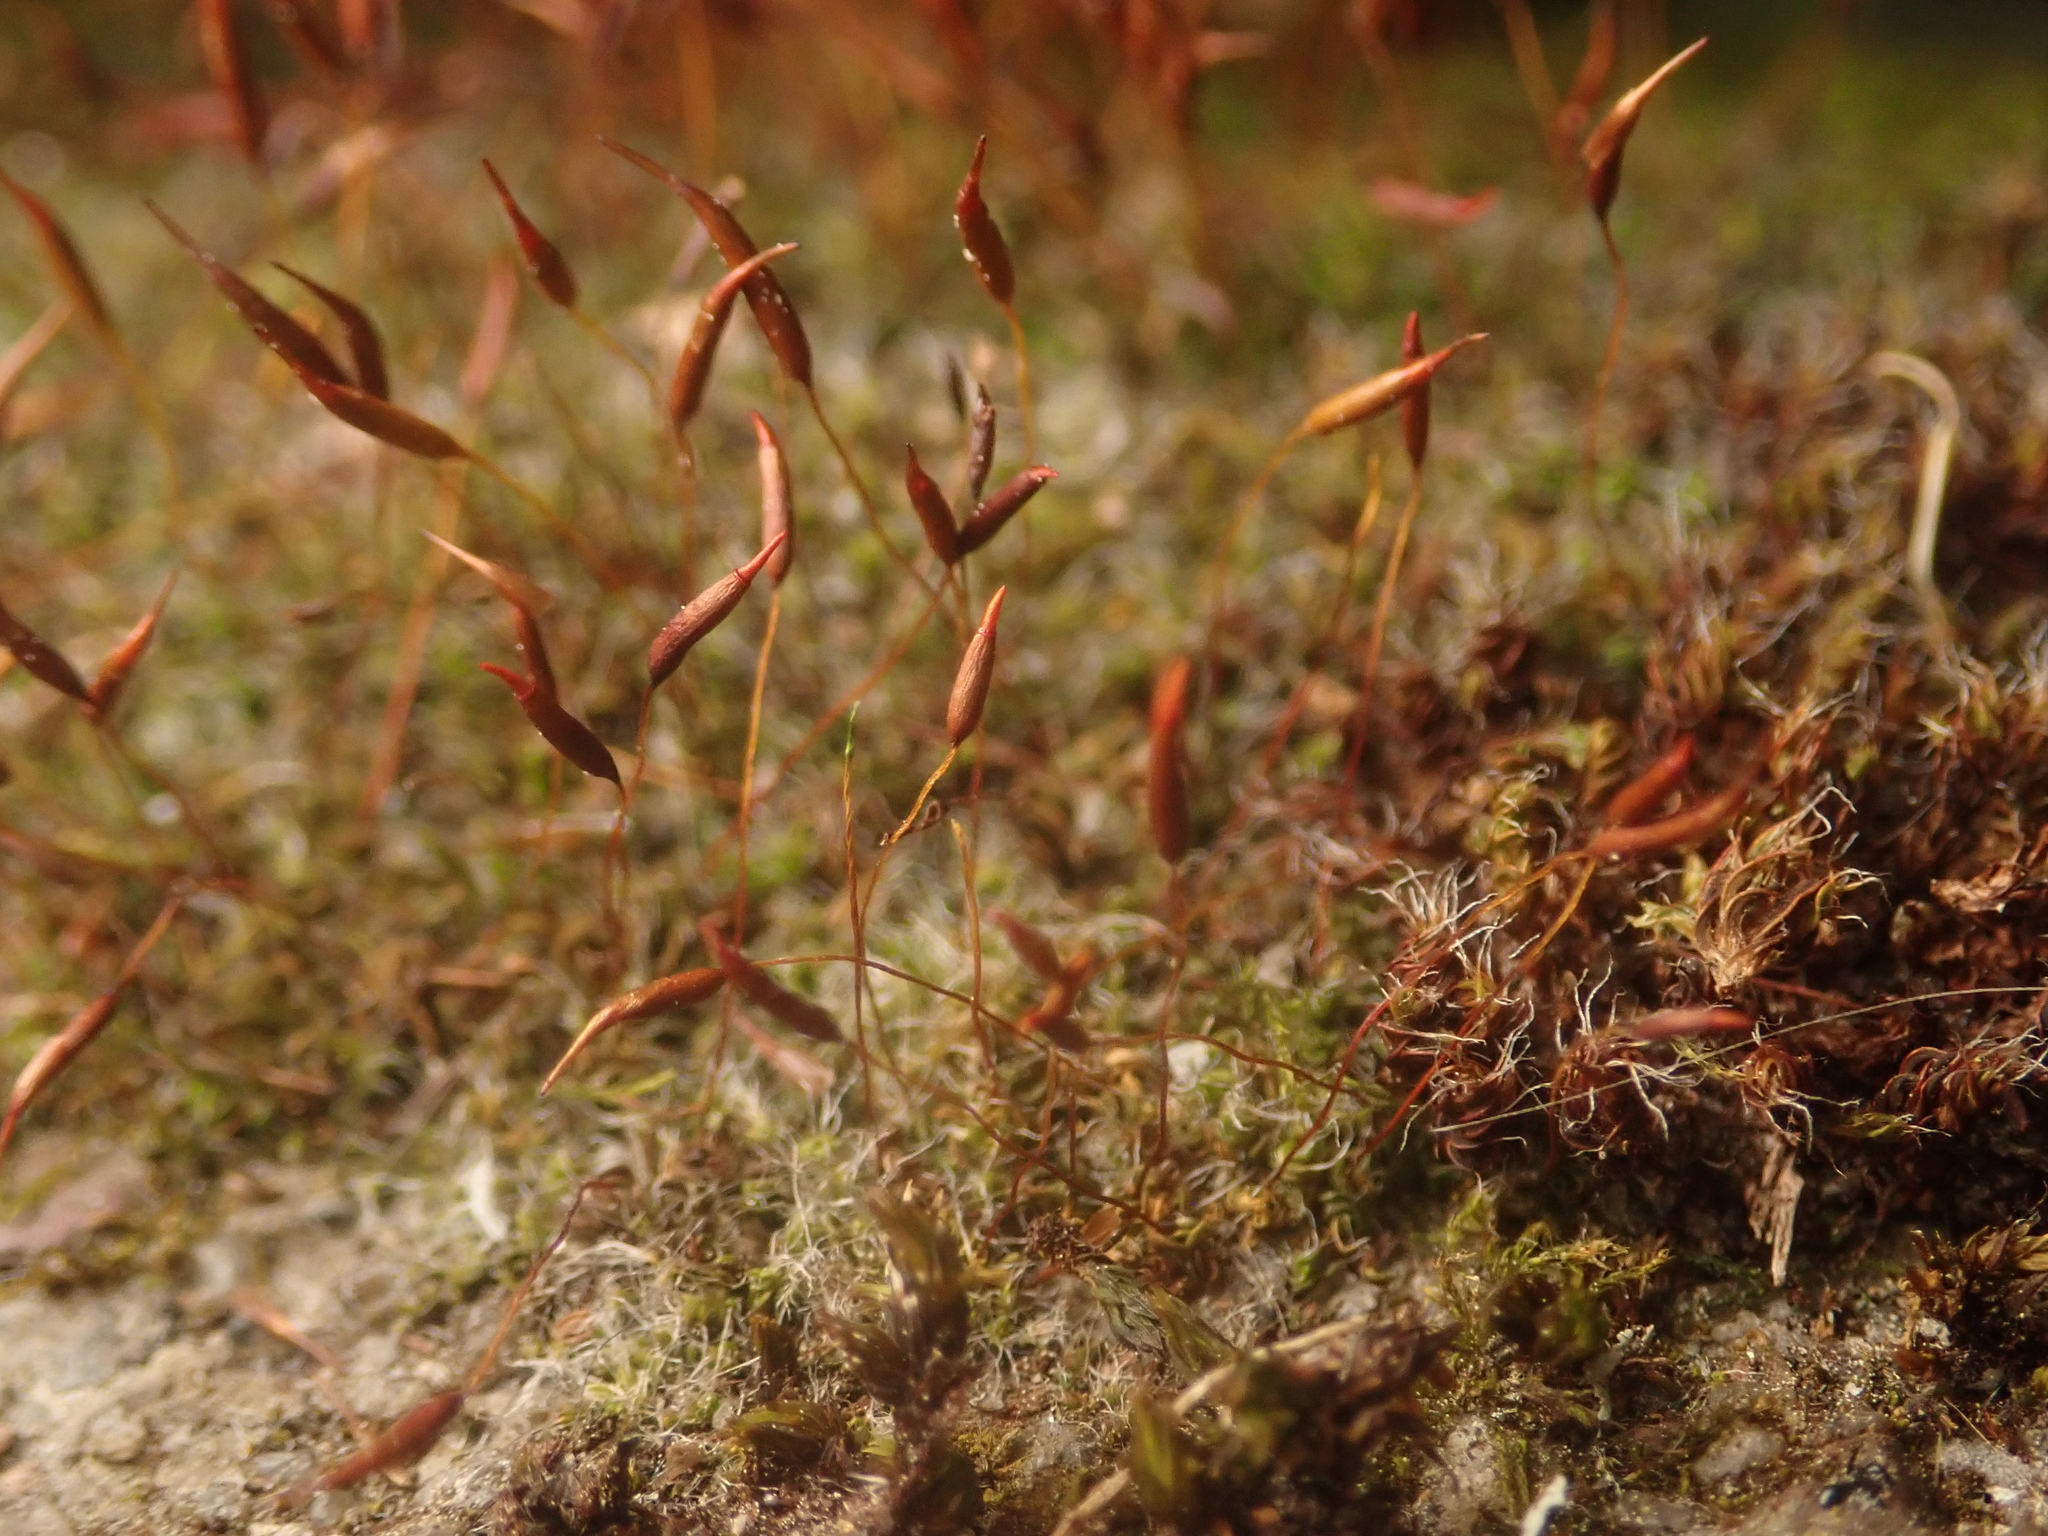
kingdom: Plantae
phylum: Bryophyta
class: Bryopsida
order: Pottiales
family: Pottiaceae
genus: Tortula
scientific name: Tortula muralis
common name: Wall screw-moss
